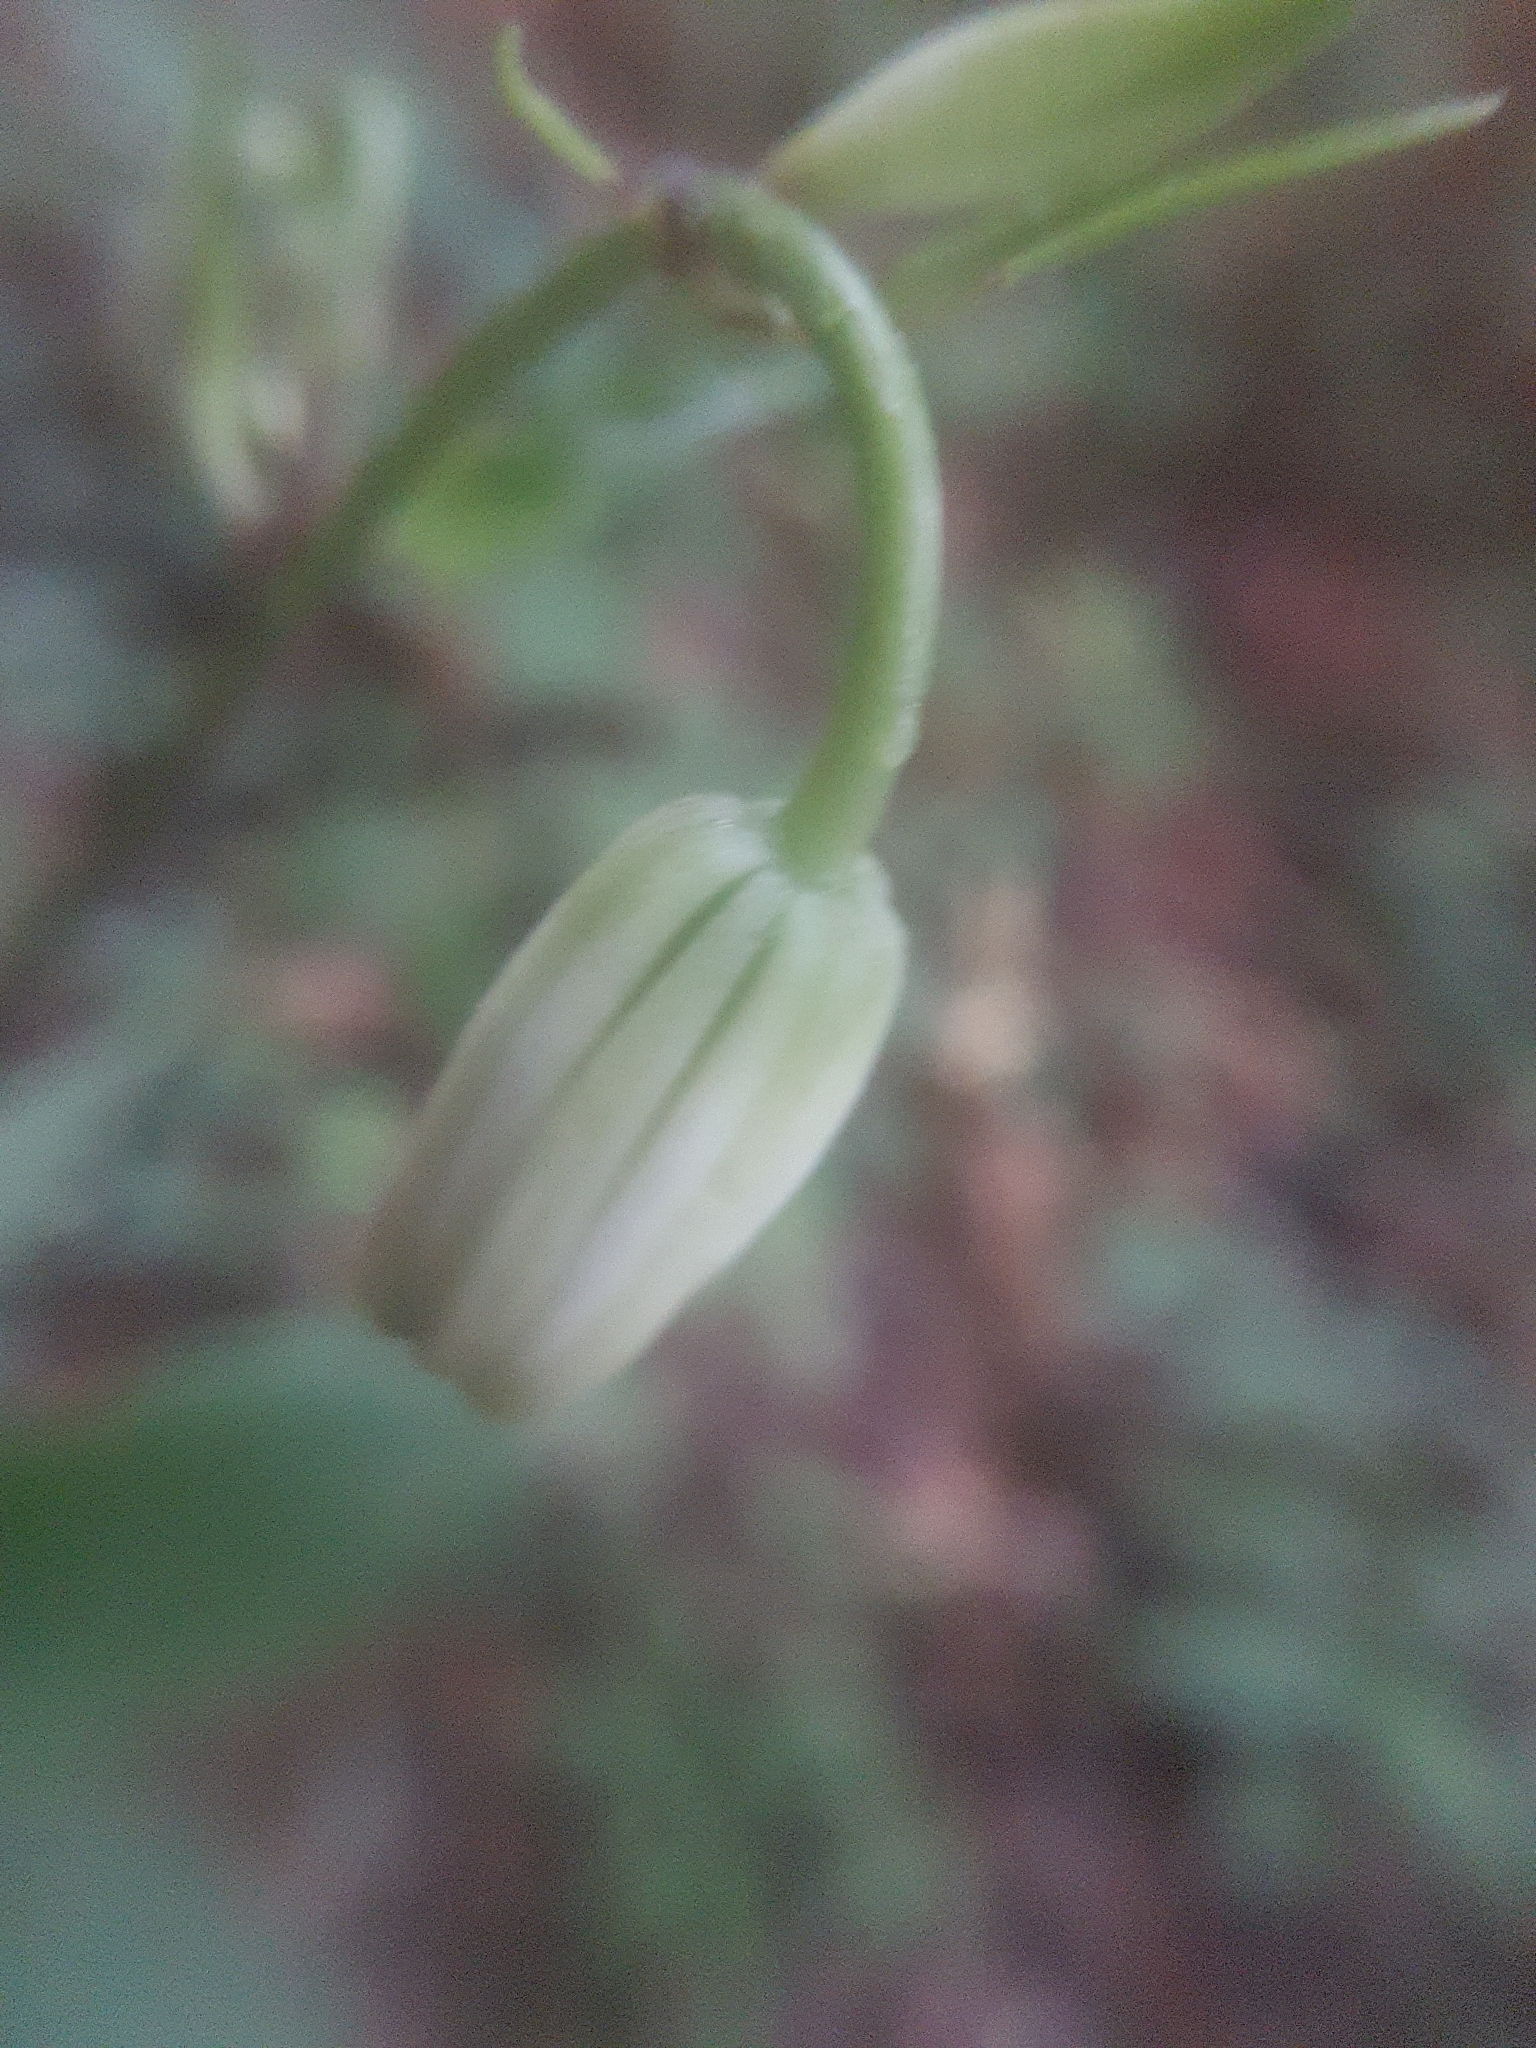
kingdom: Plantae
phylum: Tracheophyta
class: Liliopsida
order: Liliales
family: Liliaceae
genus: Lilium
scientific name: Lilium martagon
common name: Martagon lily
